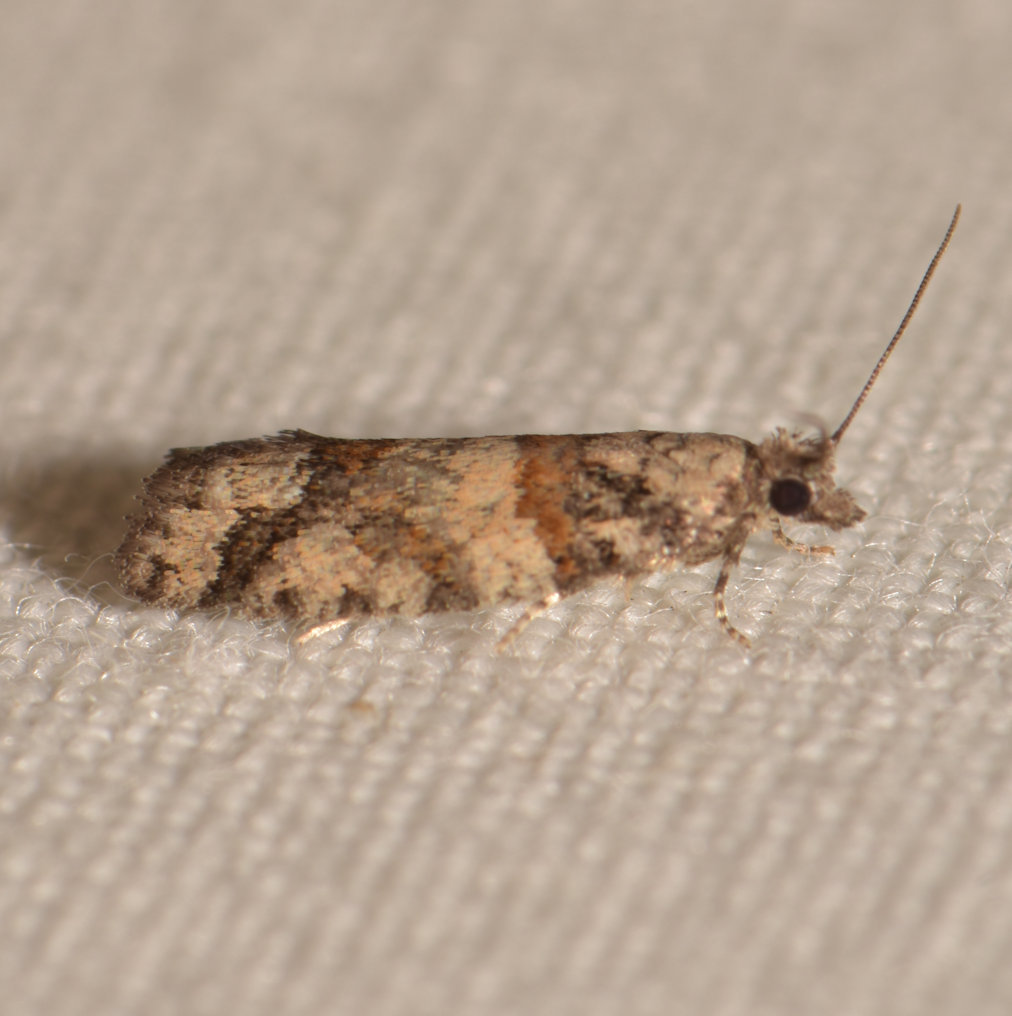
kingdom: Animalia
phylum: Arthropoda
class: Insecta
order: Lepidoptera
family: Tortricidae
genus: Epinotia
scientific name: Epinotia radicana
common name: Red-striped needleworm moth
